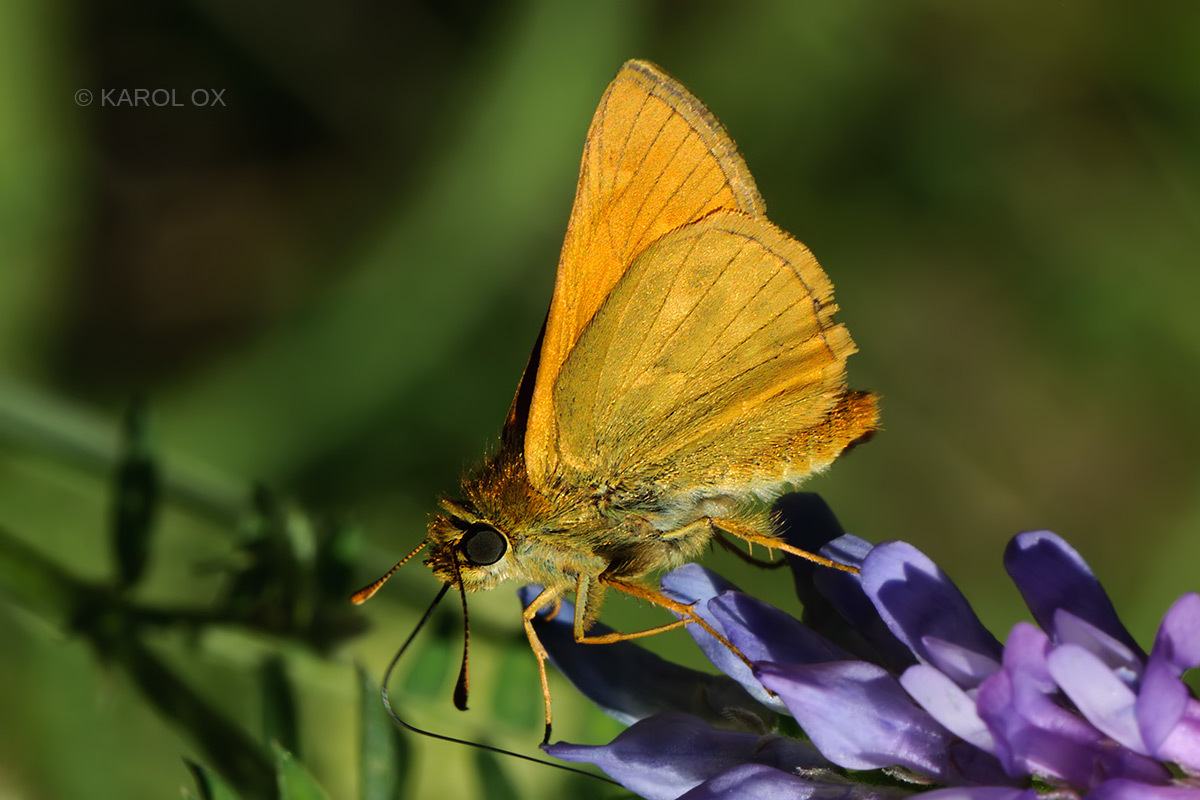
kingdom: Animalia
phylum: Arthropoda
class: Insecta
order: Lepidoptera
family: Hesperiidae
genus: Ochlodes
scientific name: Ochlodes venata
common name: Large skipper
